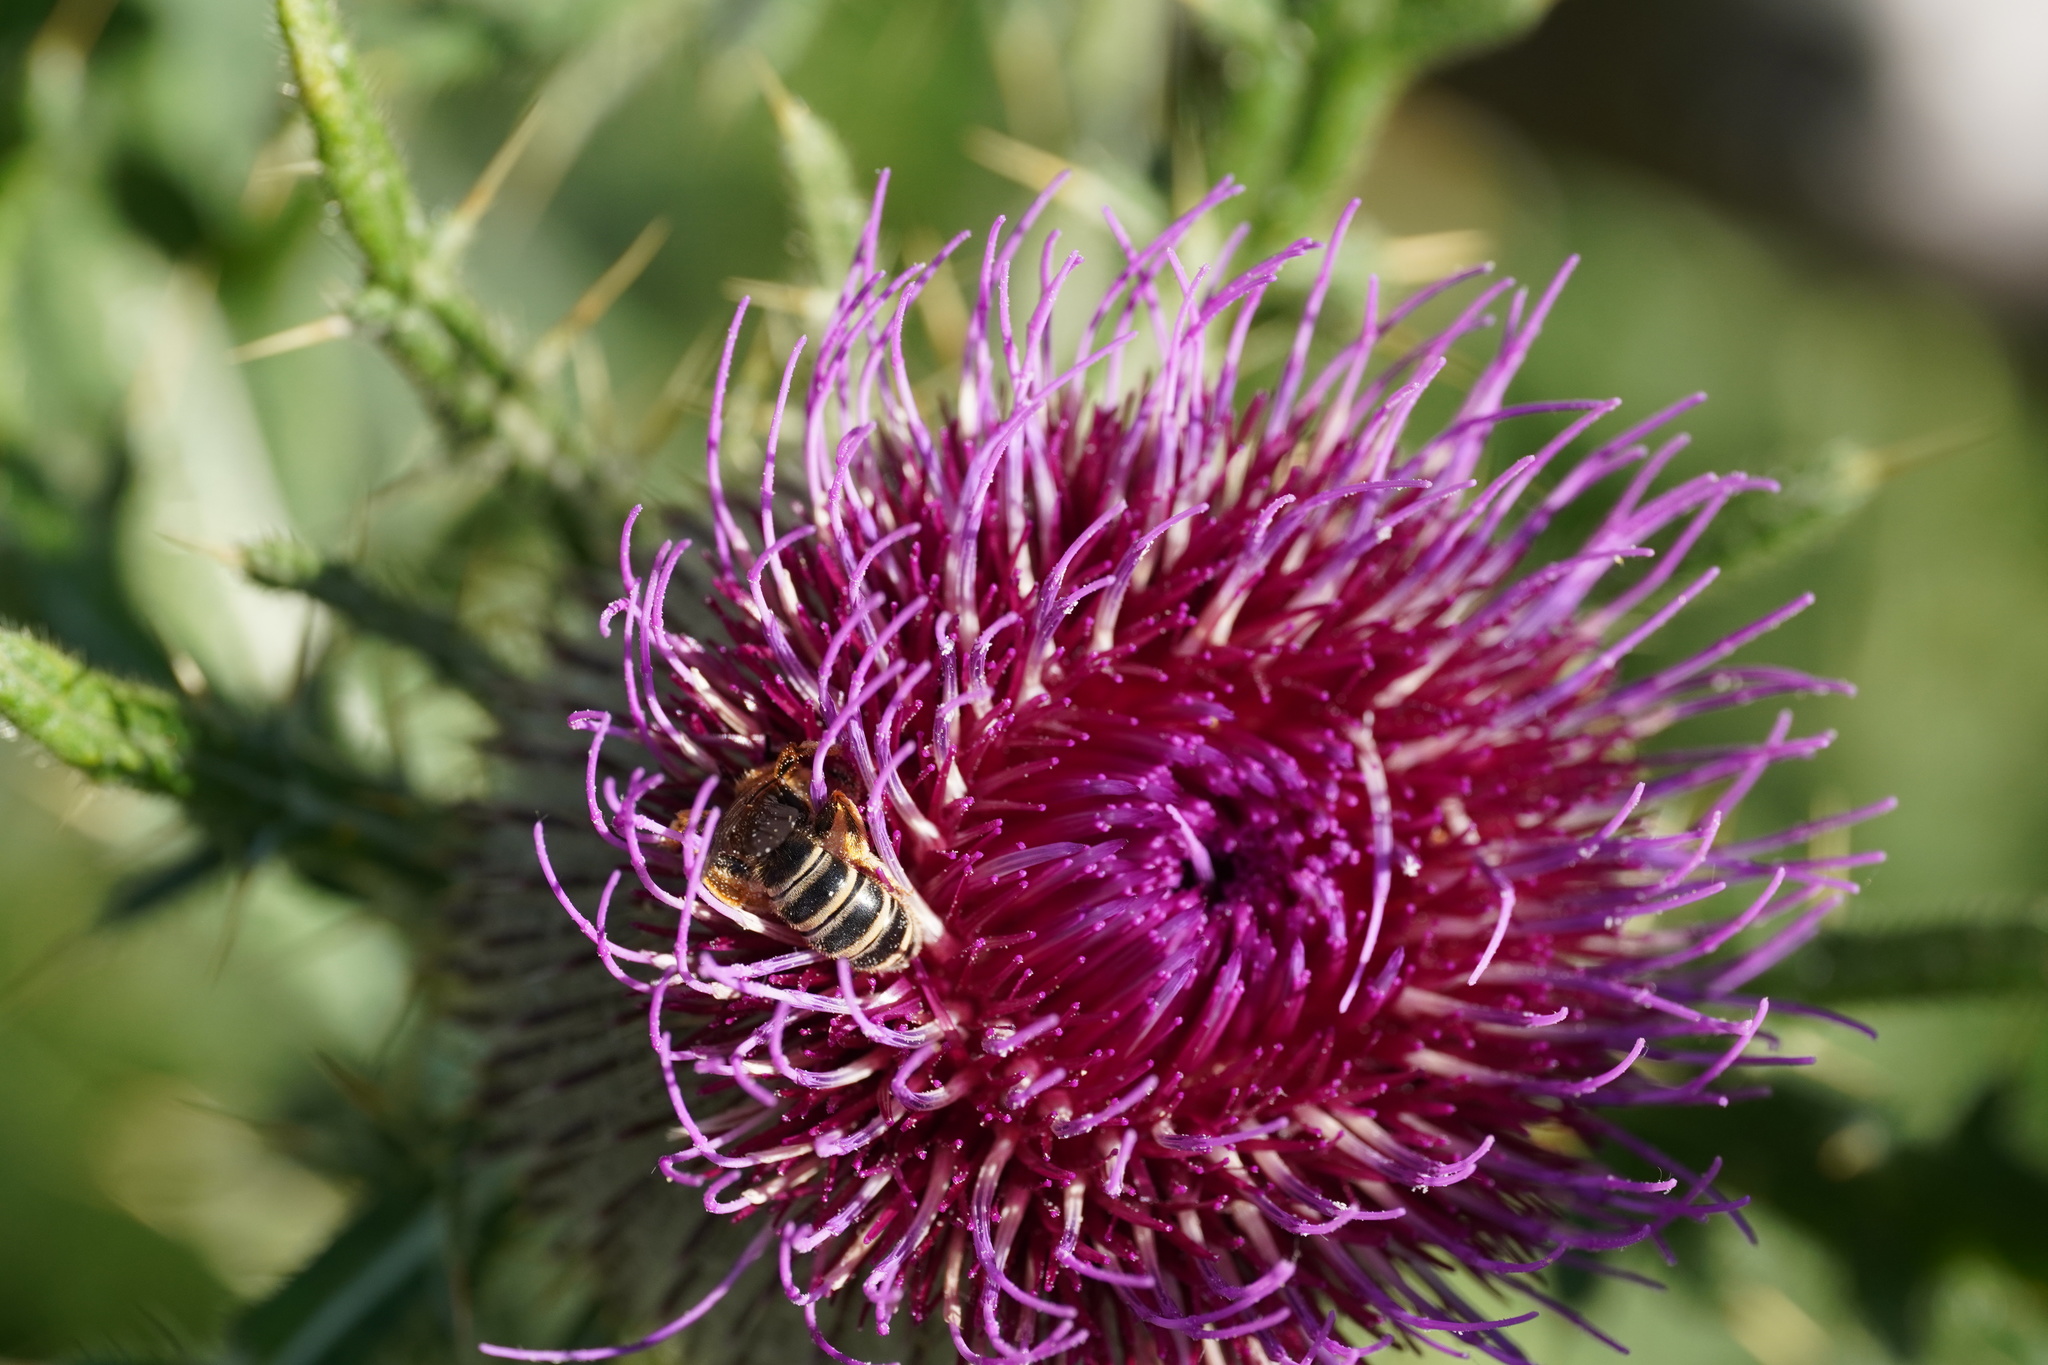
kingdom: Animalia
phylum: Arthropoda
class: Insecta
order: Hymenoptera
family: Halictidae
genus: Halictus
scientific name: Halictus scabiosae
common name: Great banded furrow bee
